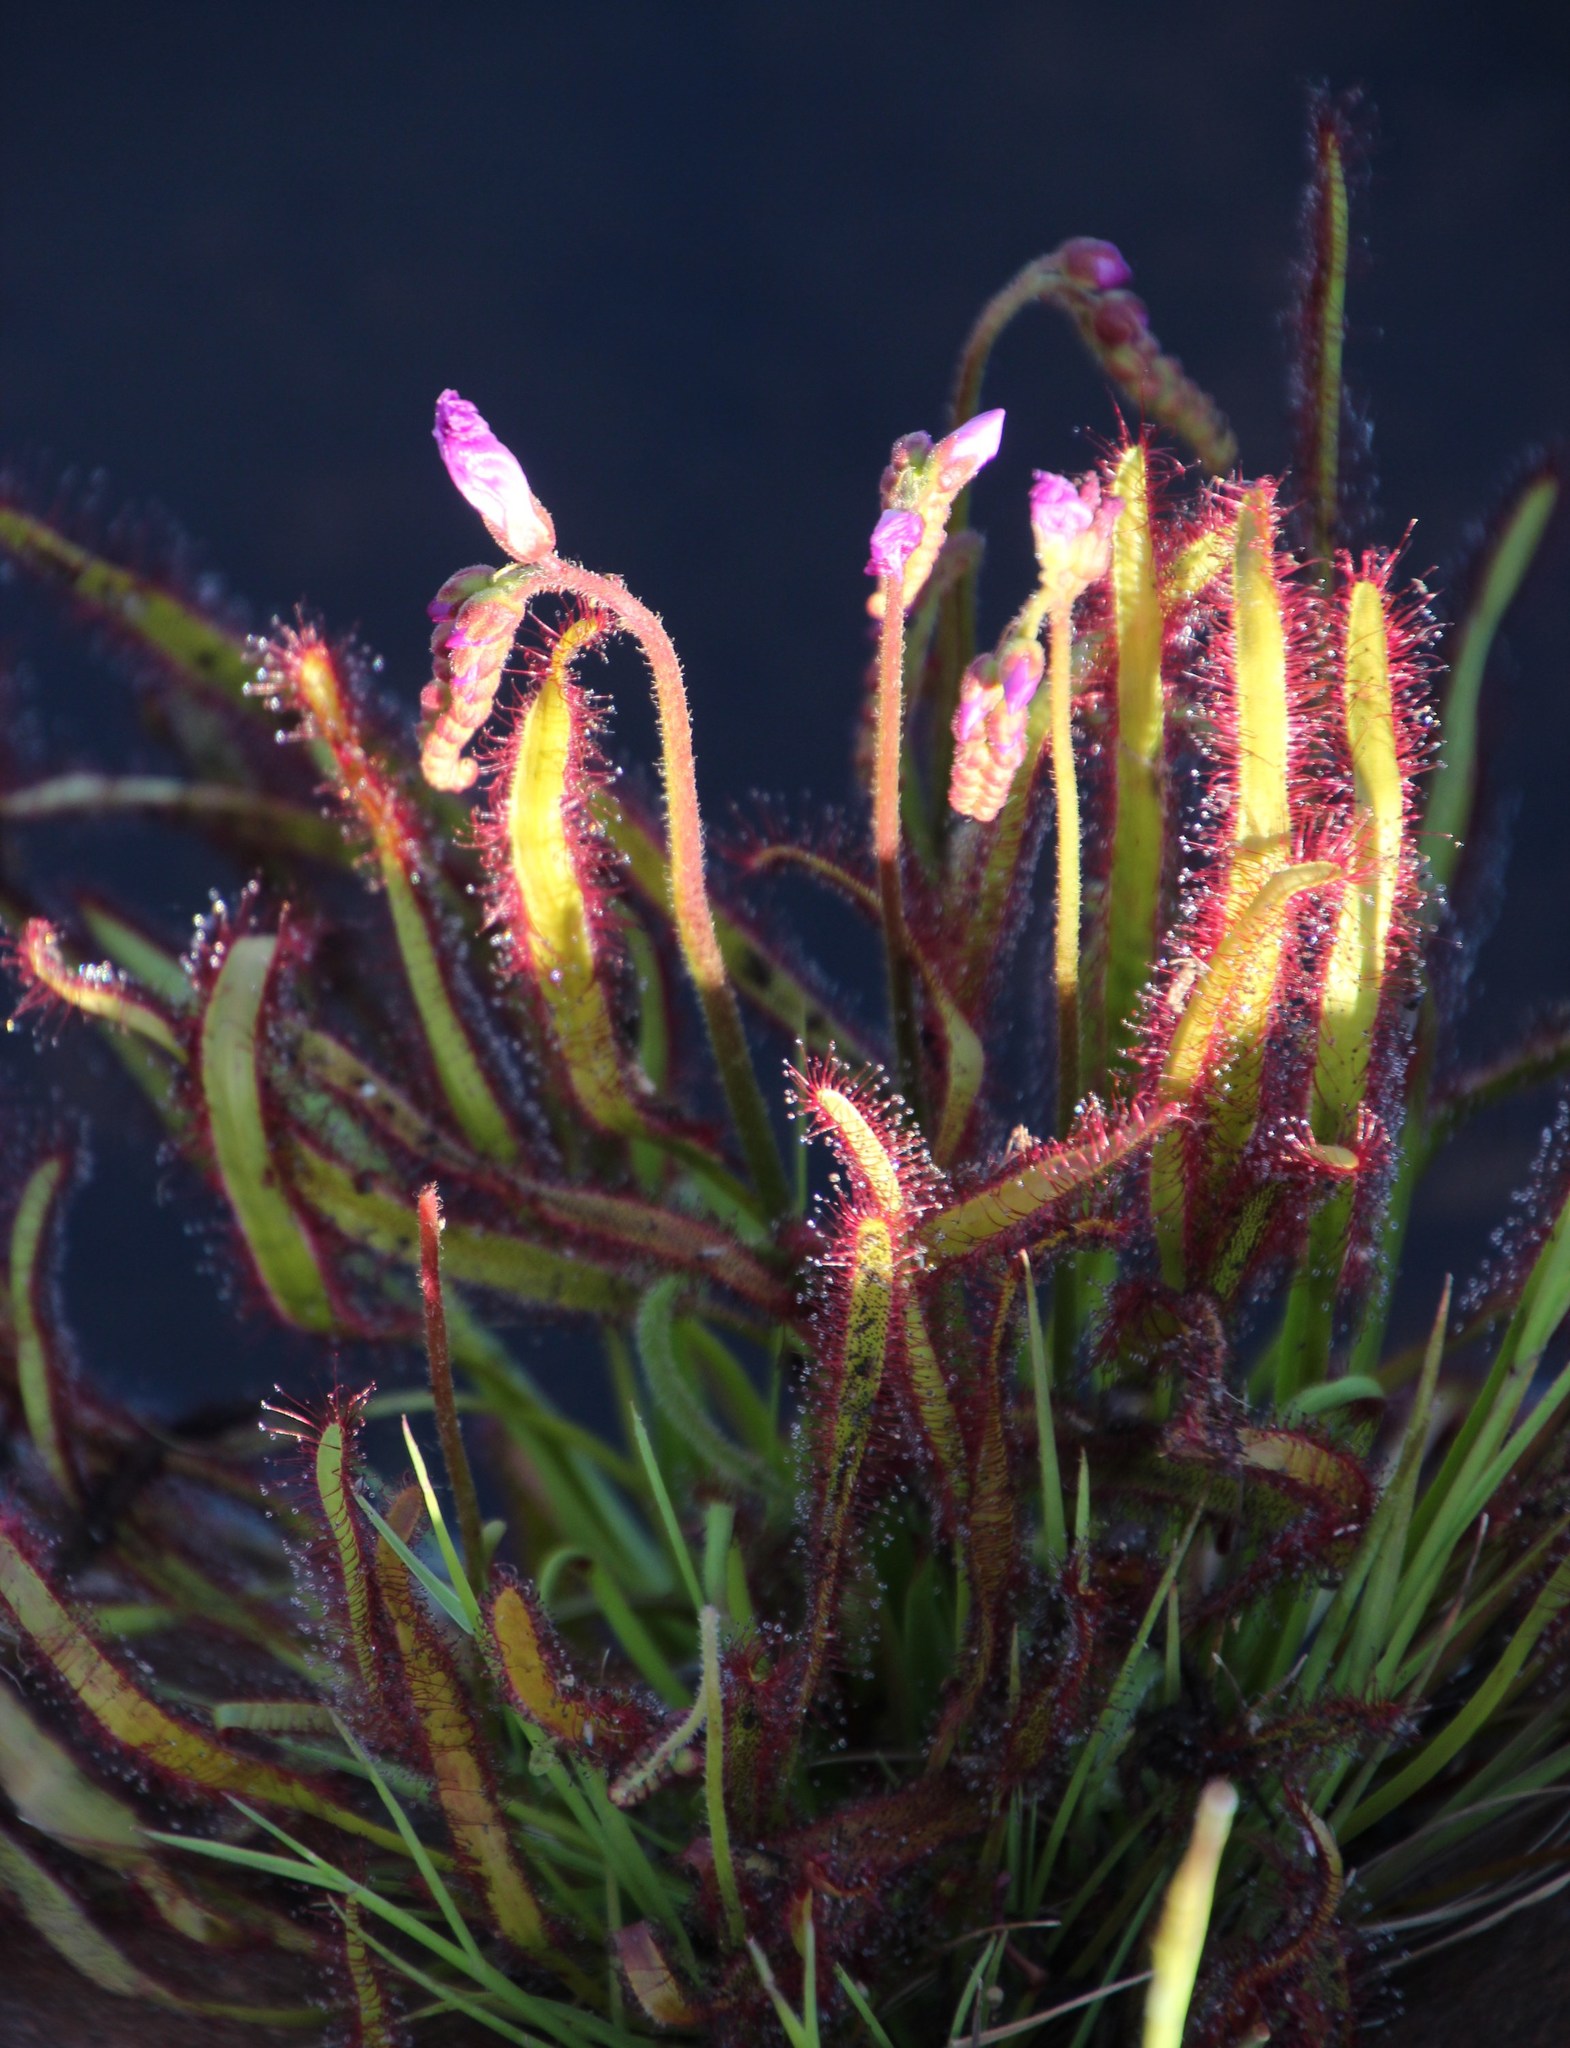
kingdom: Plantae
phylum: Tracheophyta
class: Magnoliopsida
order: Caryophyllales
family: Droseraceae
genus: Drosera
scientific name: Drosera capensis
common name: Cape sundew
